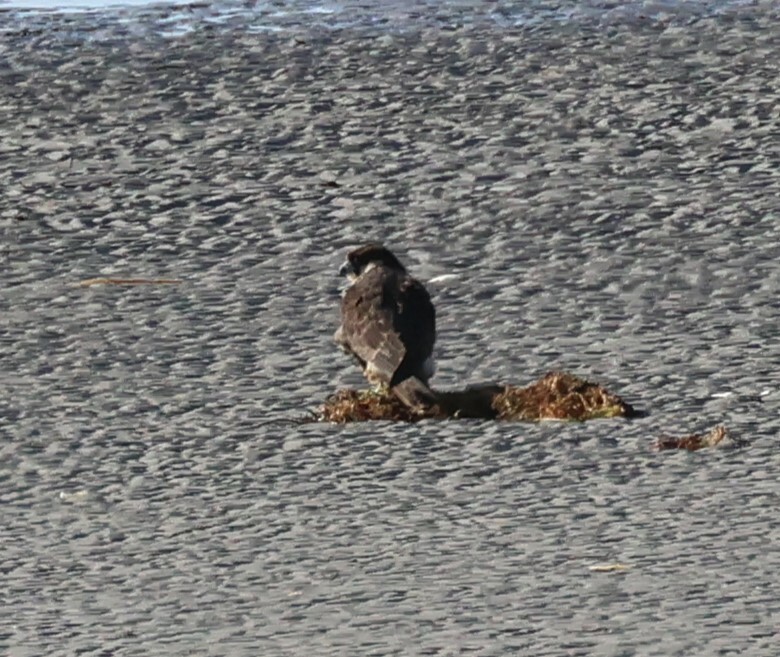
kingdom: Animalia
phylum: Chordata
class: Aves
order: Falconiformes
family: Falconidae
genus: Falco
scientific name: Falco peregrinus
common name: Peregrine falcon
